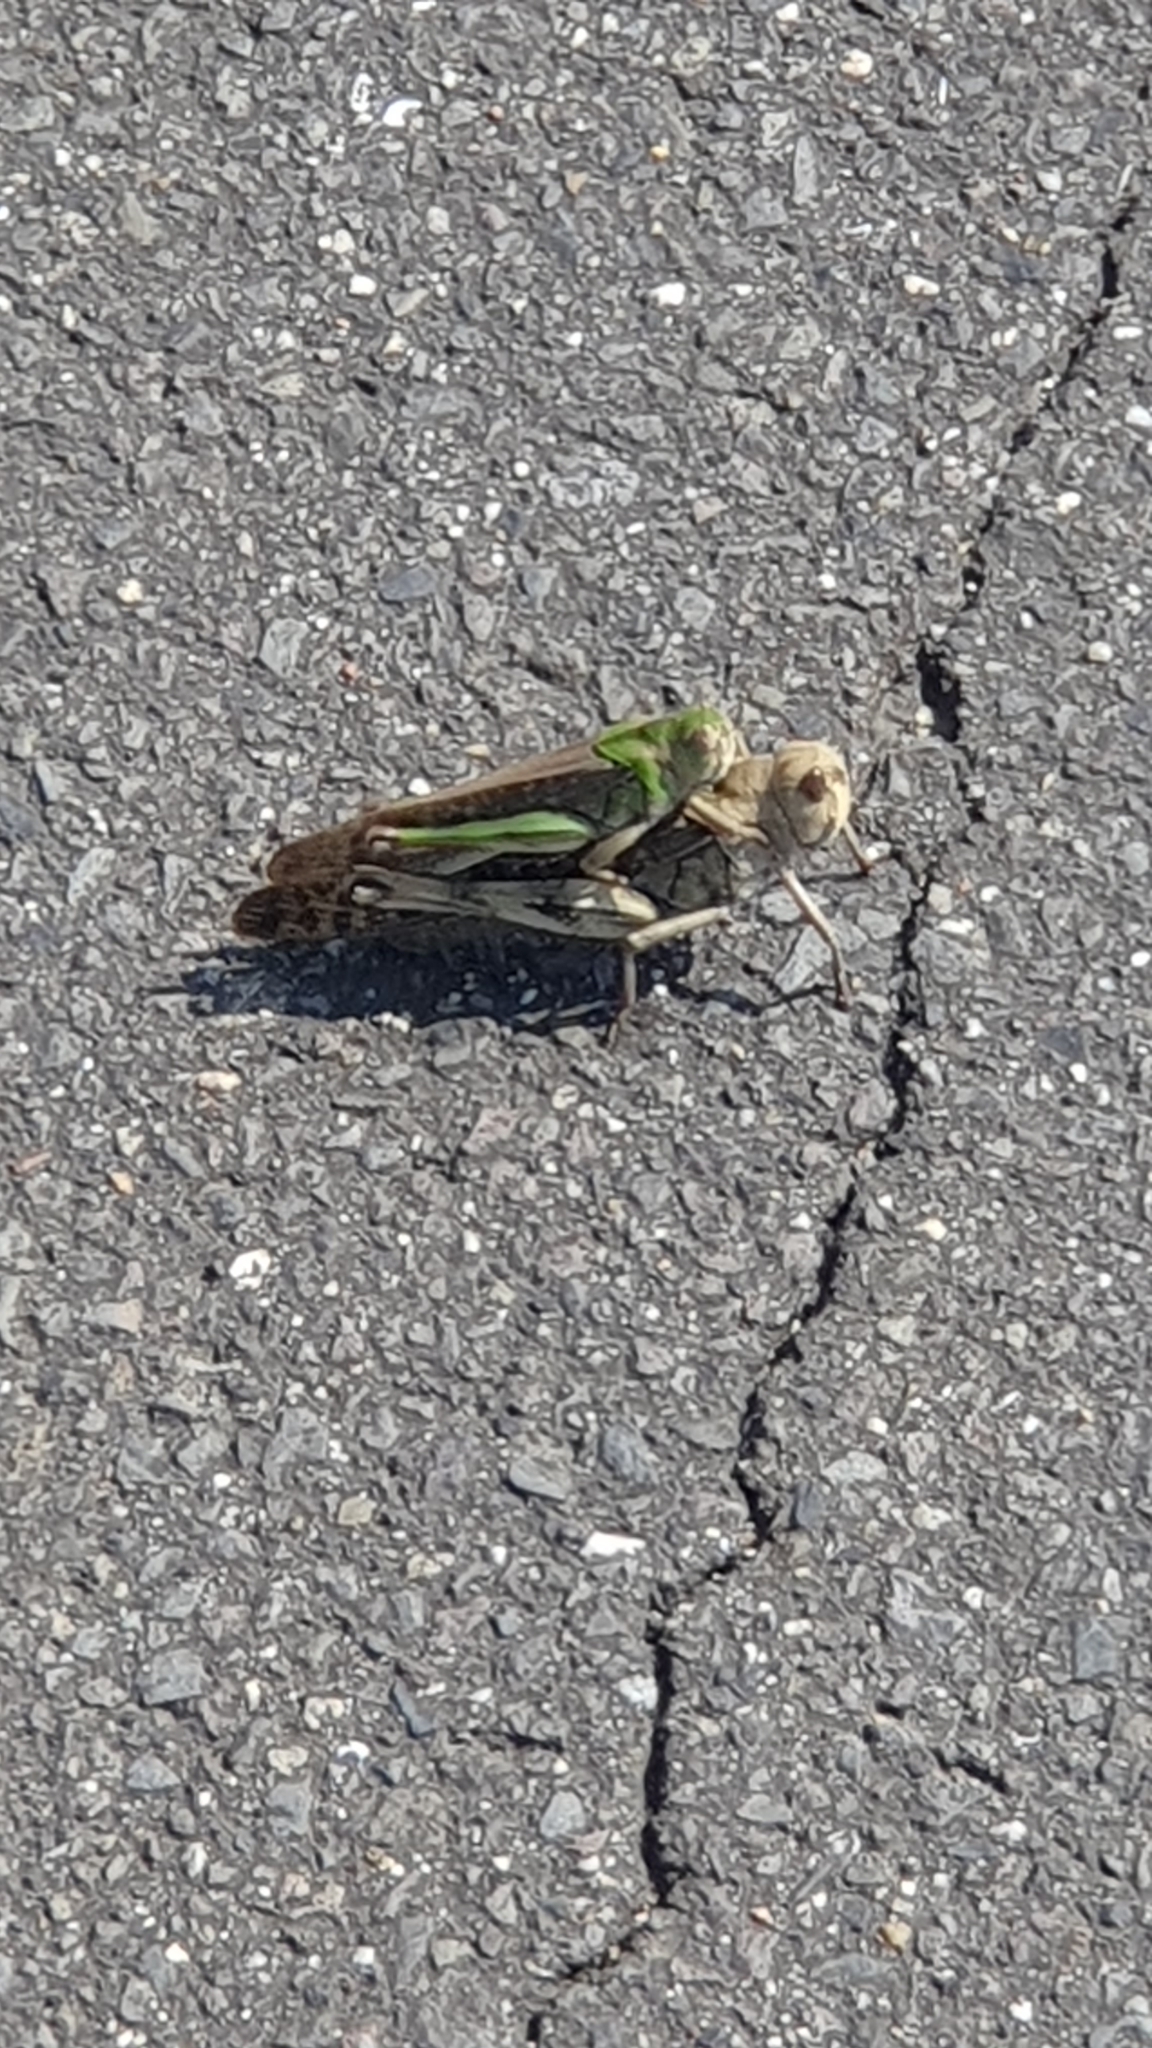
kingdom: Animalia
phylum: Arthropoda
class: Insecta
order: Orthoptera
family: Acrididae
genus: Locusta
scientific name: Locusta migratoria
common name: Migratory locust
